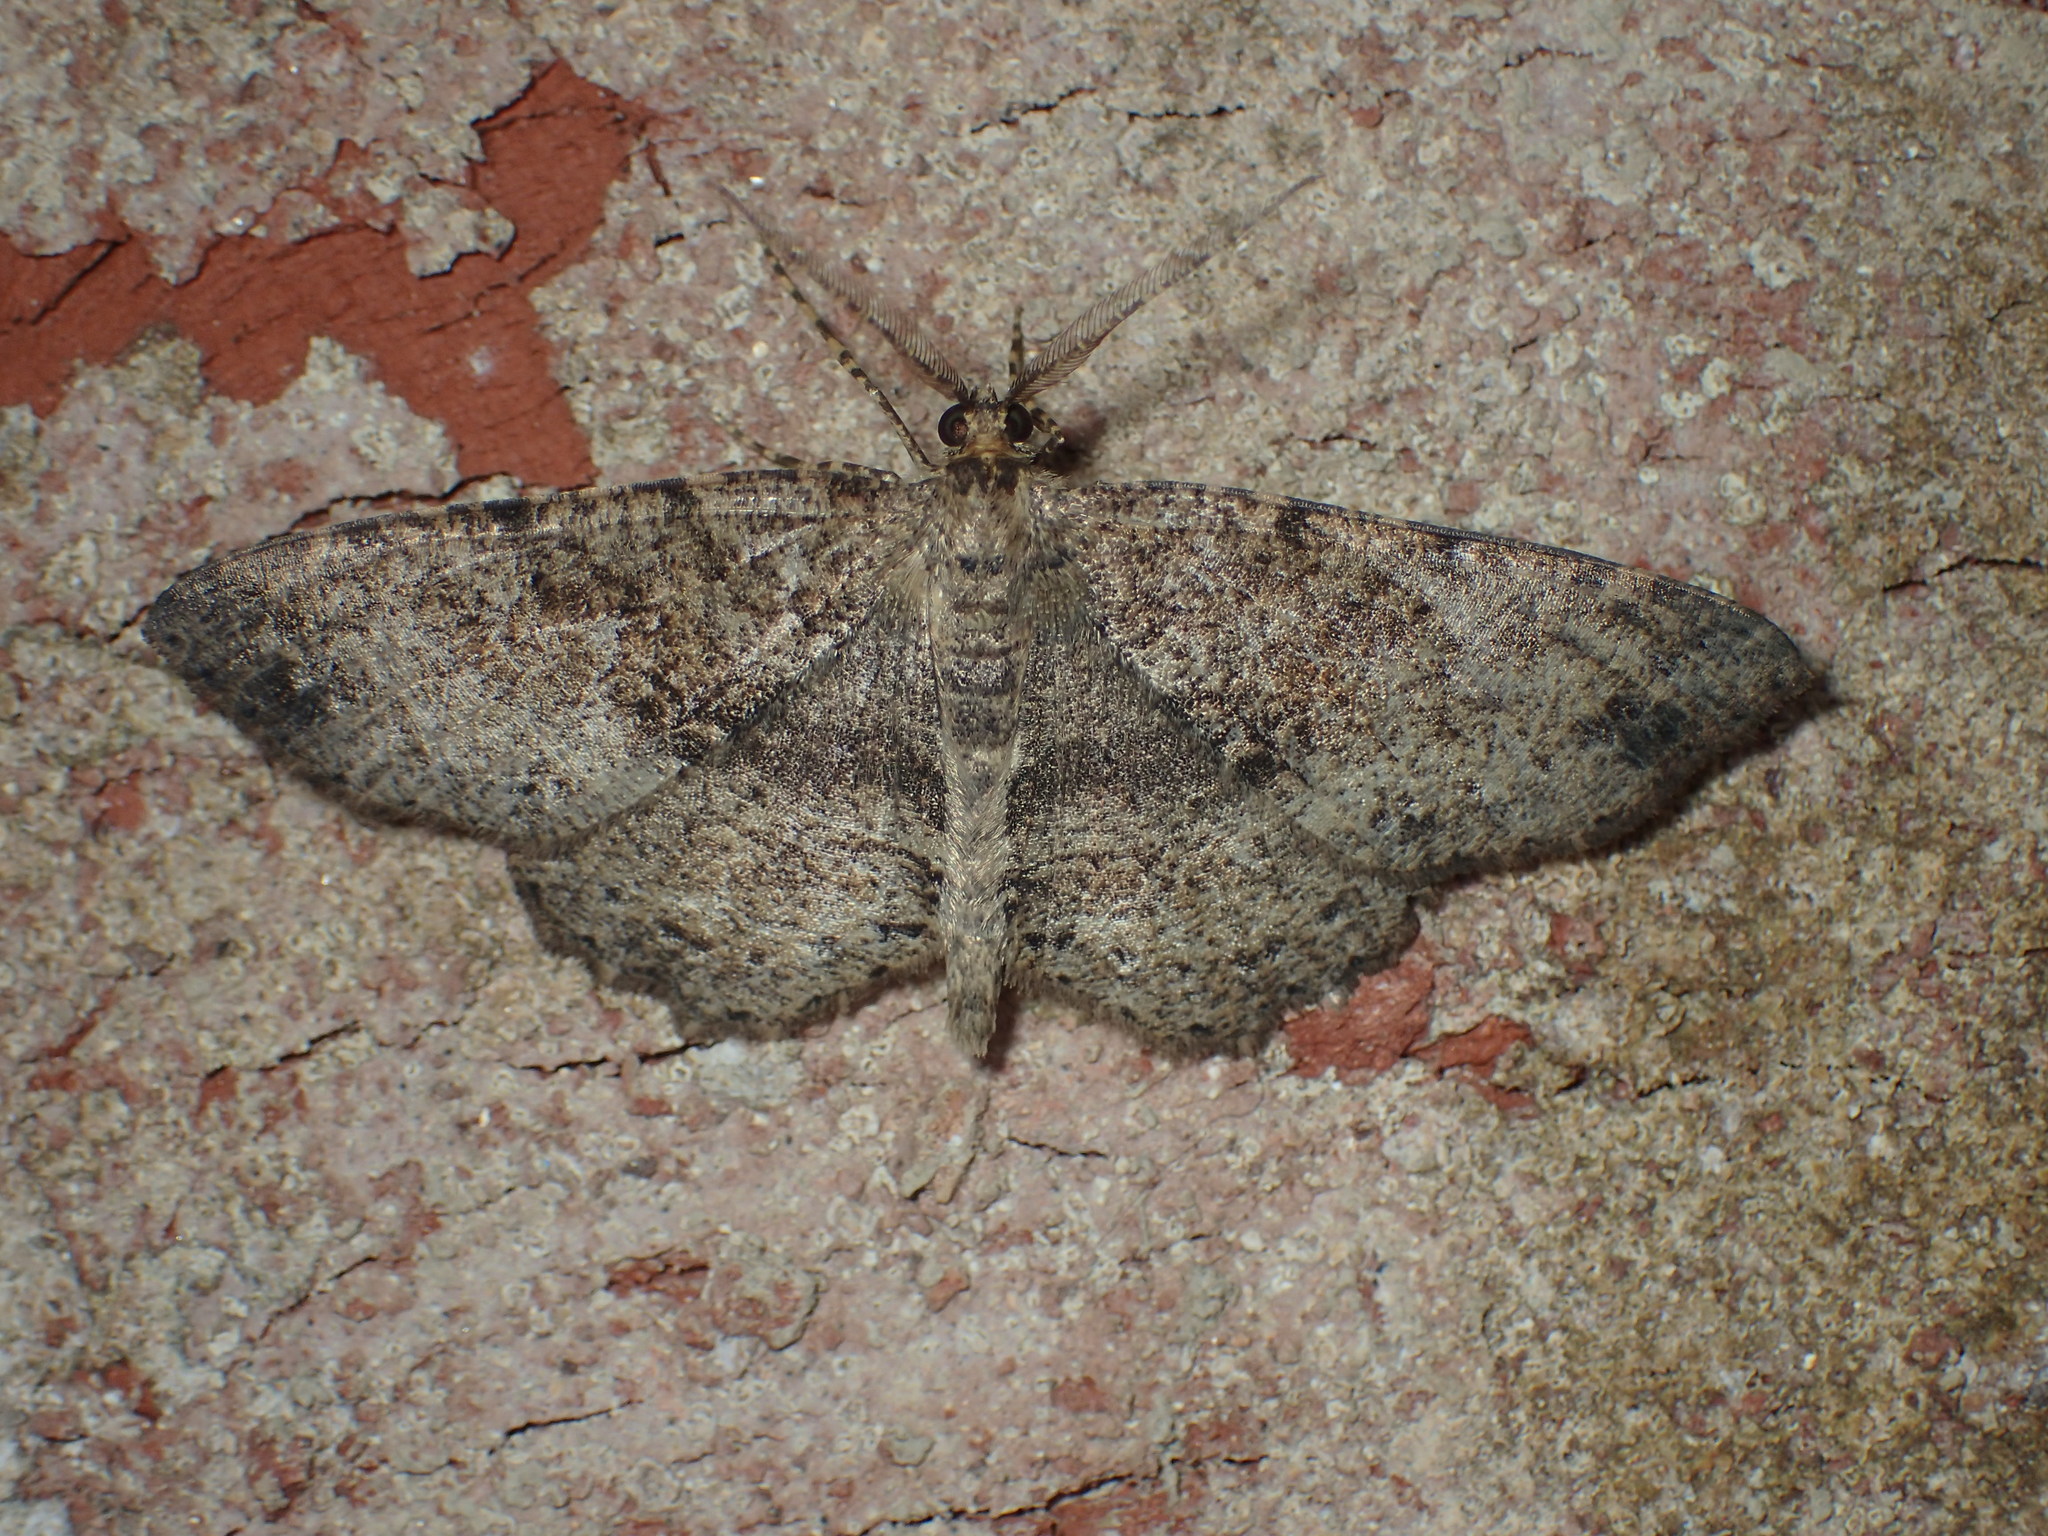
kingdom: Animalia
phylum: Arthropoda
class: Insecta
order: Lepidoptera
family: Geometridae
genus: Melanolophia
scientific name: Melanolophia canadaria
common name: Canadian melanolophia
